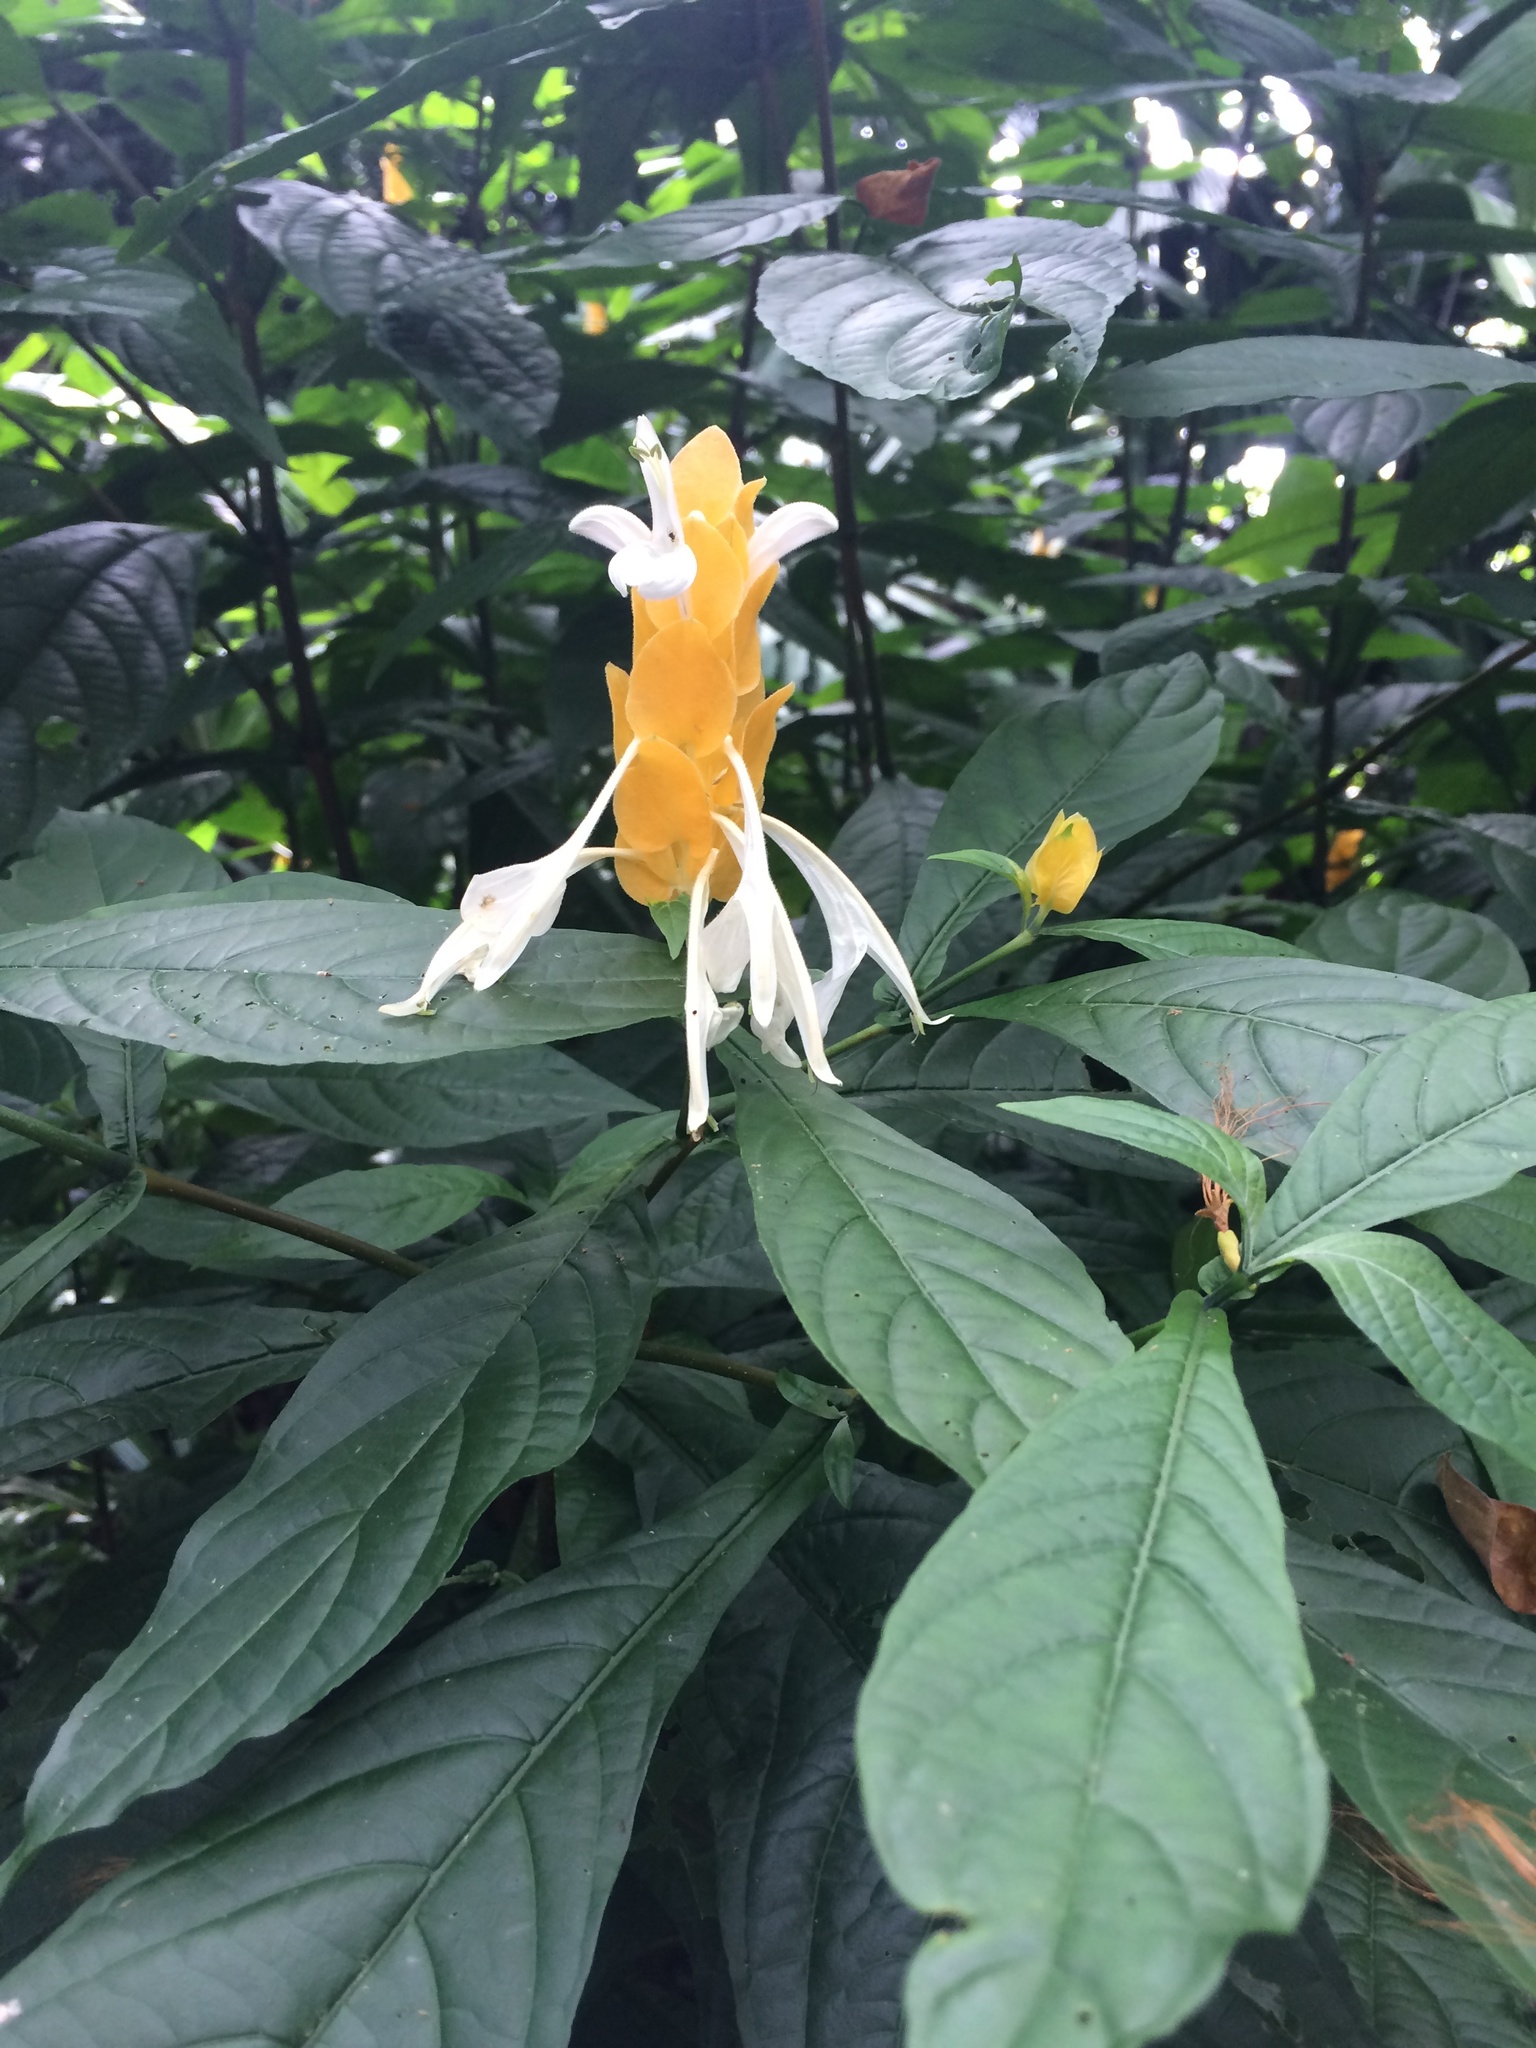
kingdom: Plantae
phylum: Tracheophyta
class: Magnoliopsida
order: Lamiales
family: Acanthaceae
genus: Pachystachys
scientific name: Pachystachys lutea
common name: Golden shrimp-plant
